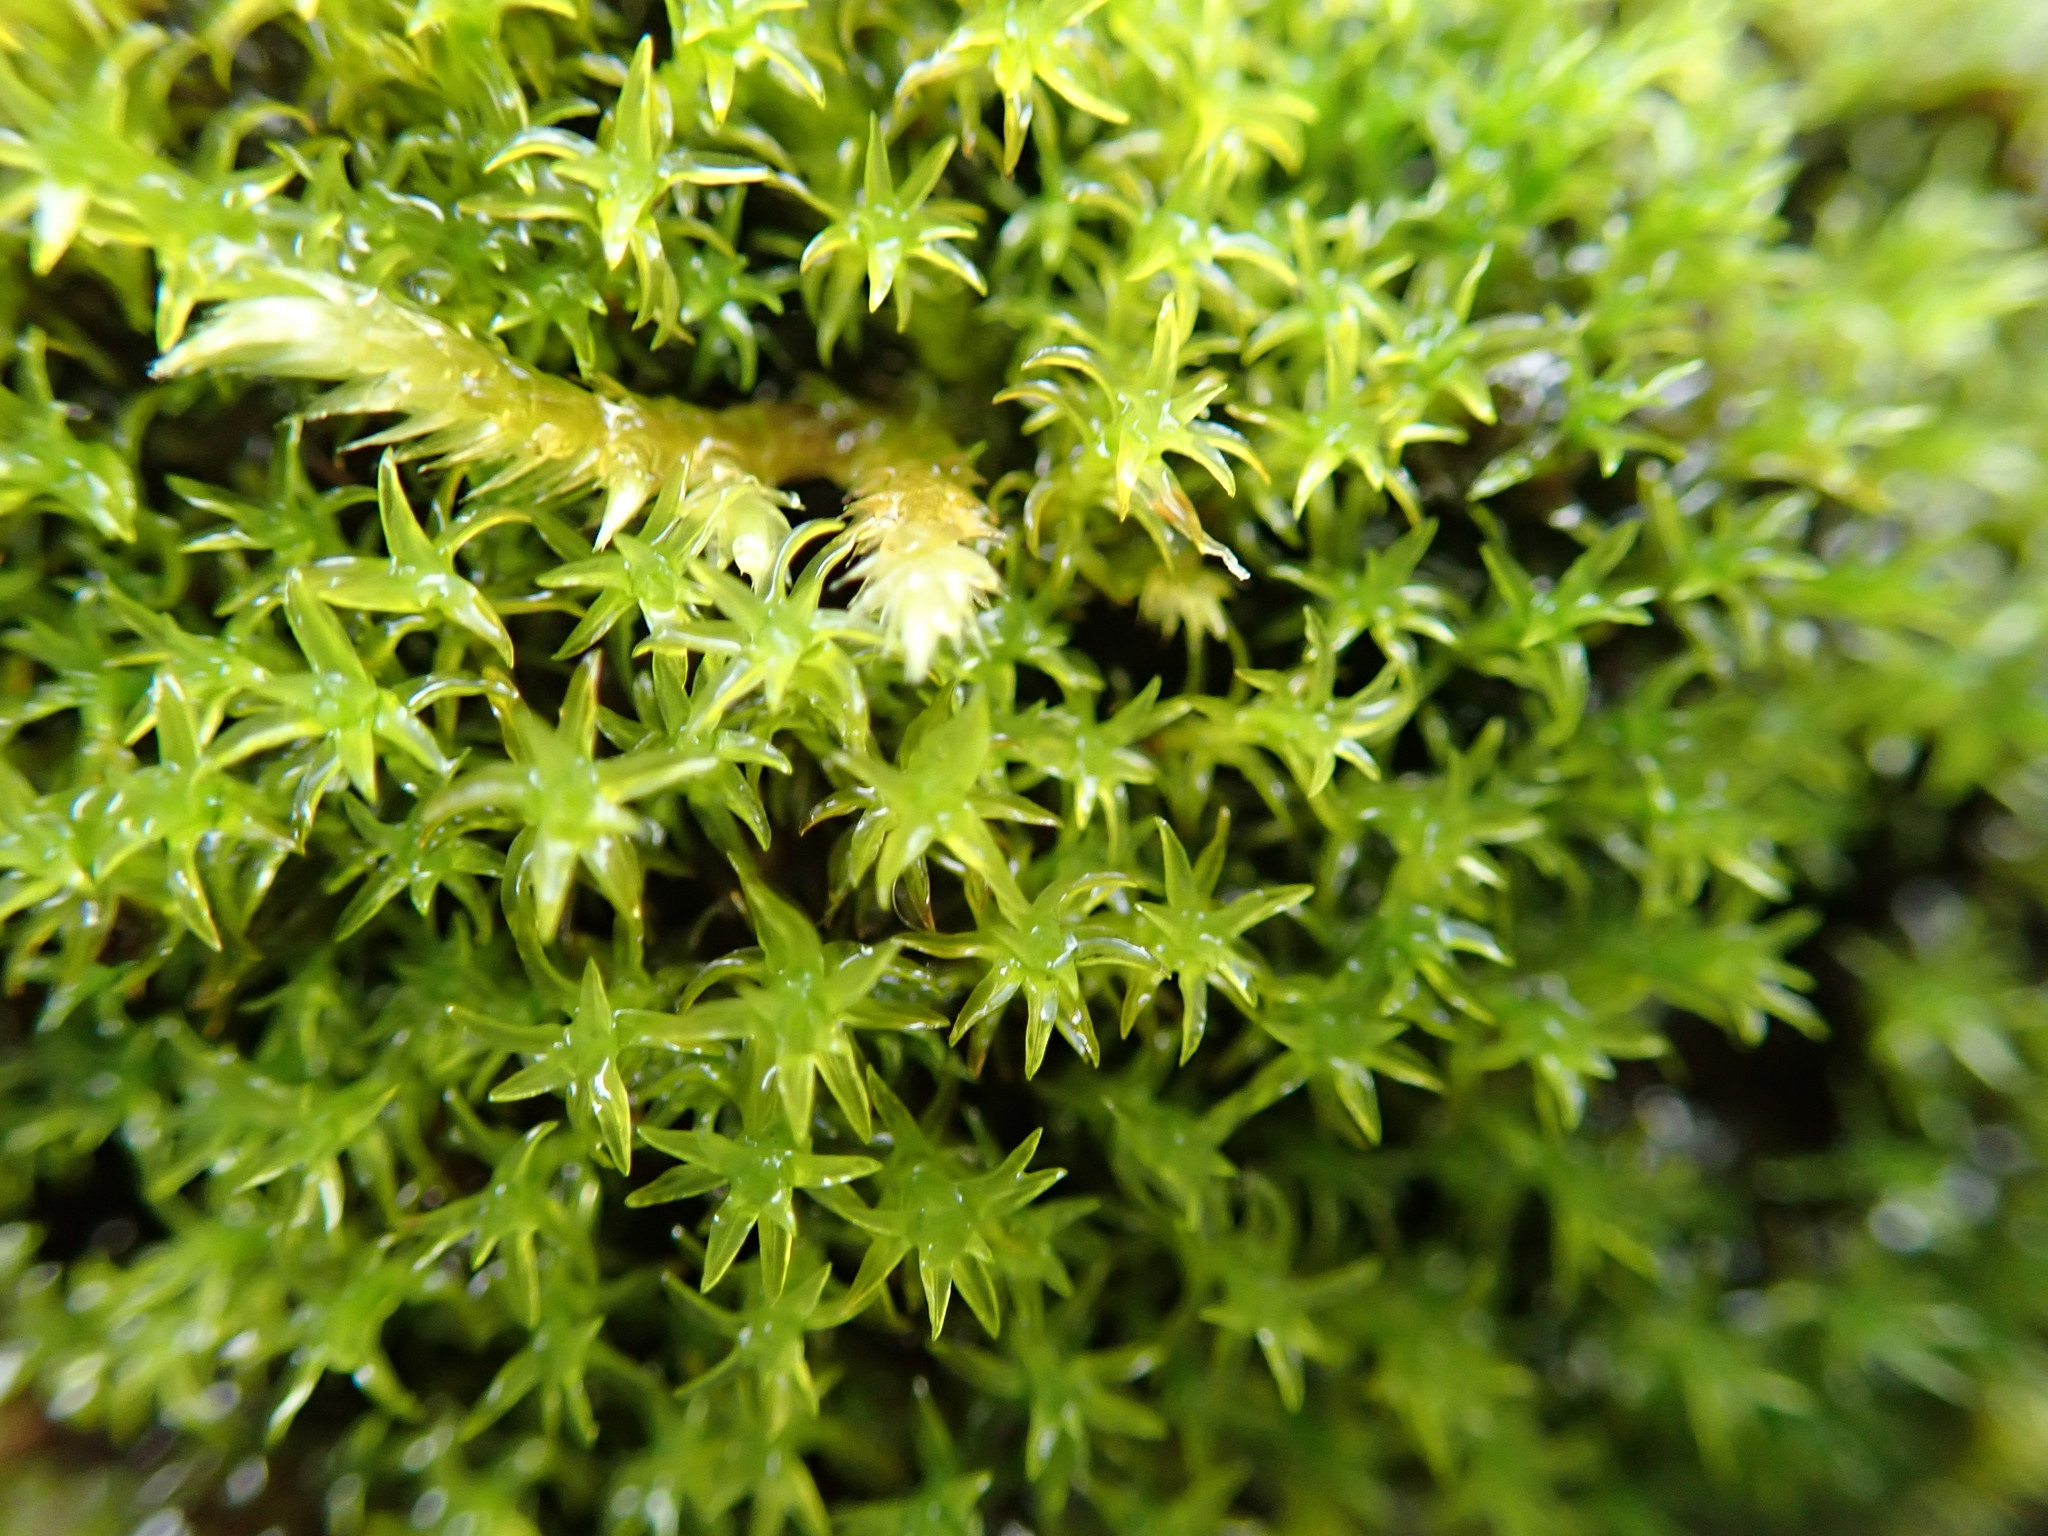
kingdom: Plantae
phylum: Bryophyta
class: Bryopsida
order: Dicranales
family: Aongstroemiaceae
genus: Dichodontium
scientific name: Dichodontium pellucidum
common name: Transparent fork moss
